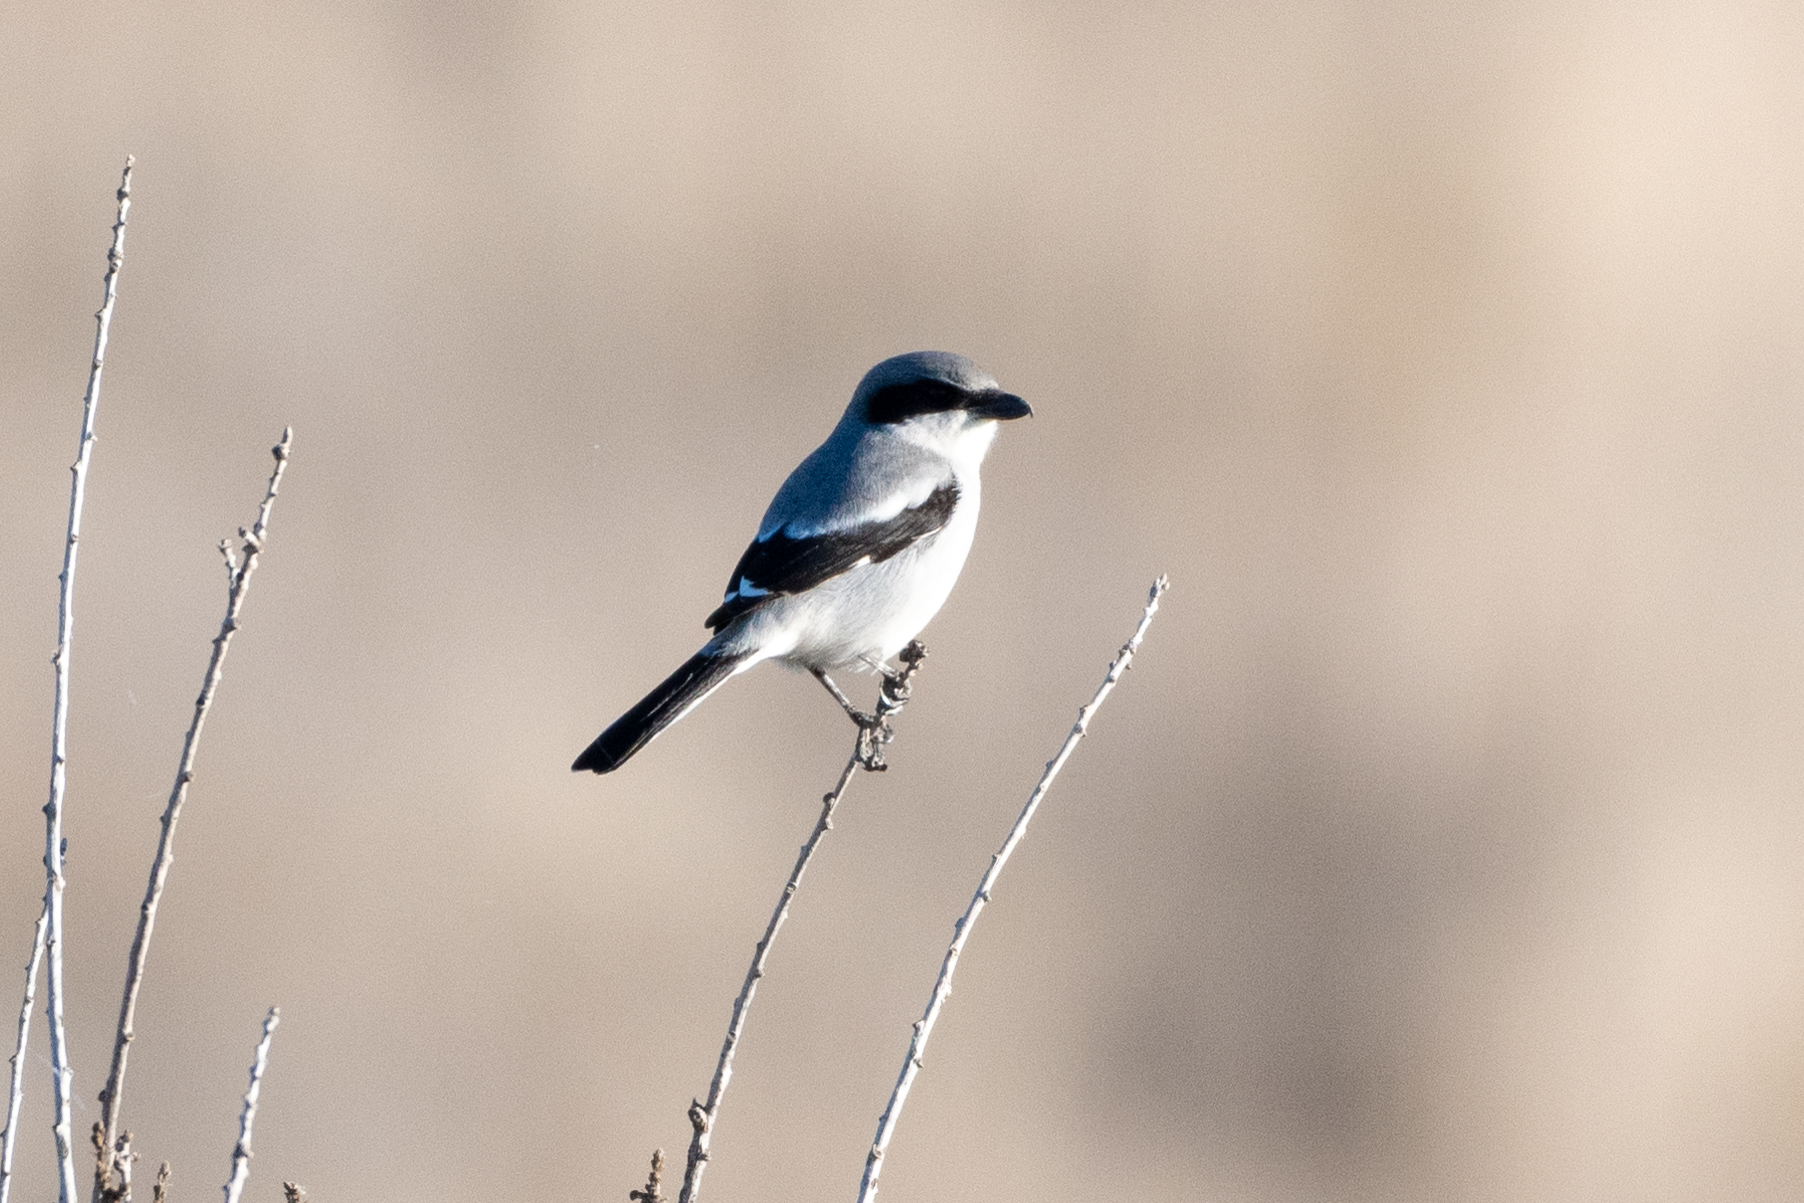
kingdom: Animalia
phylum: Chordata
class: Aves
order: Passeriformes
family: Laniidae
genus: Lanius
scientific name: Lanius ludovicianus
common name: Loggerhead shrike
